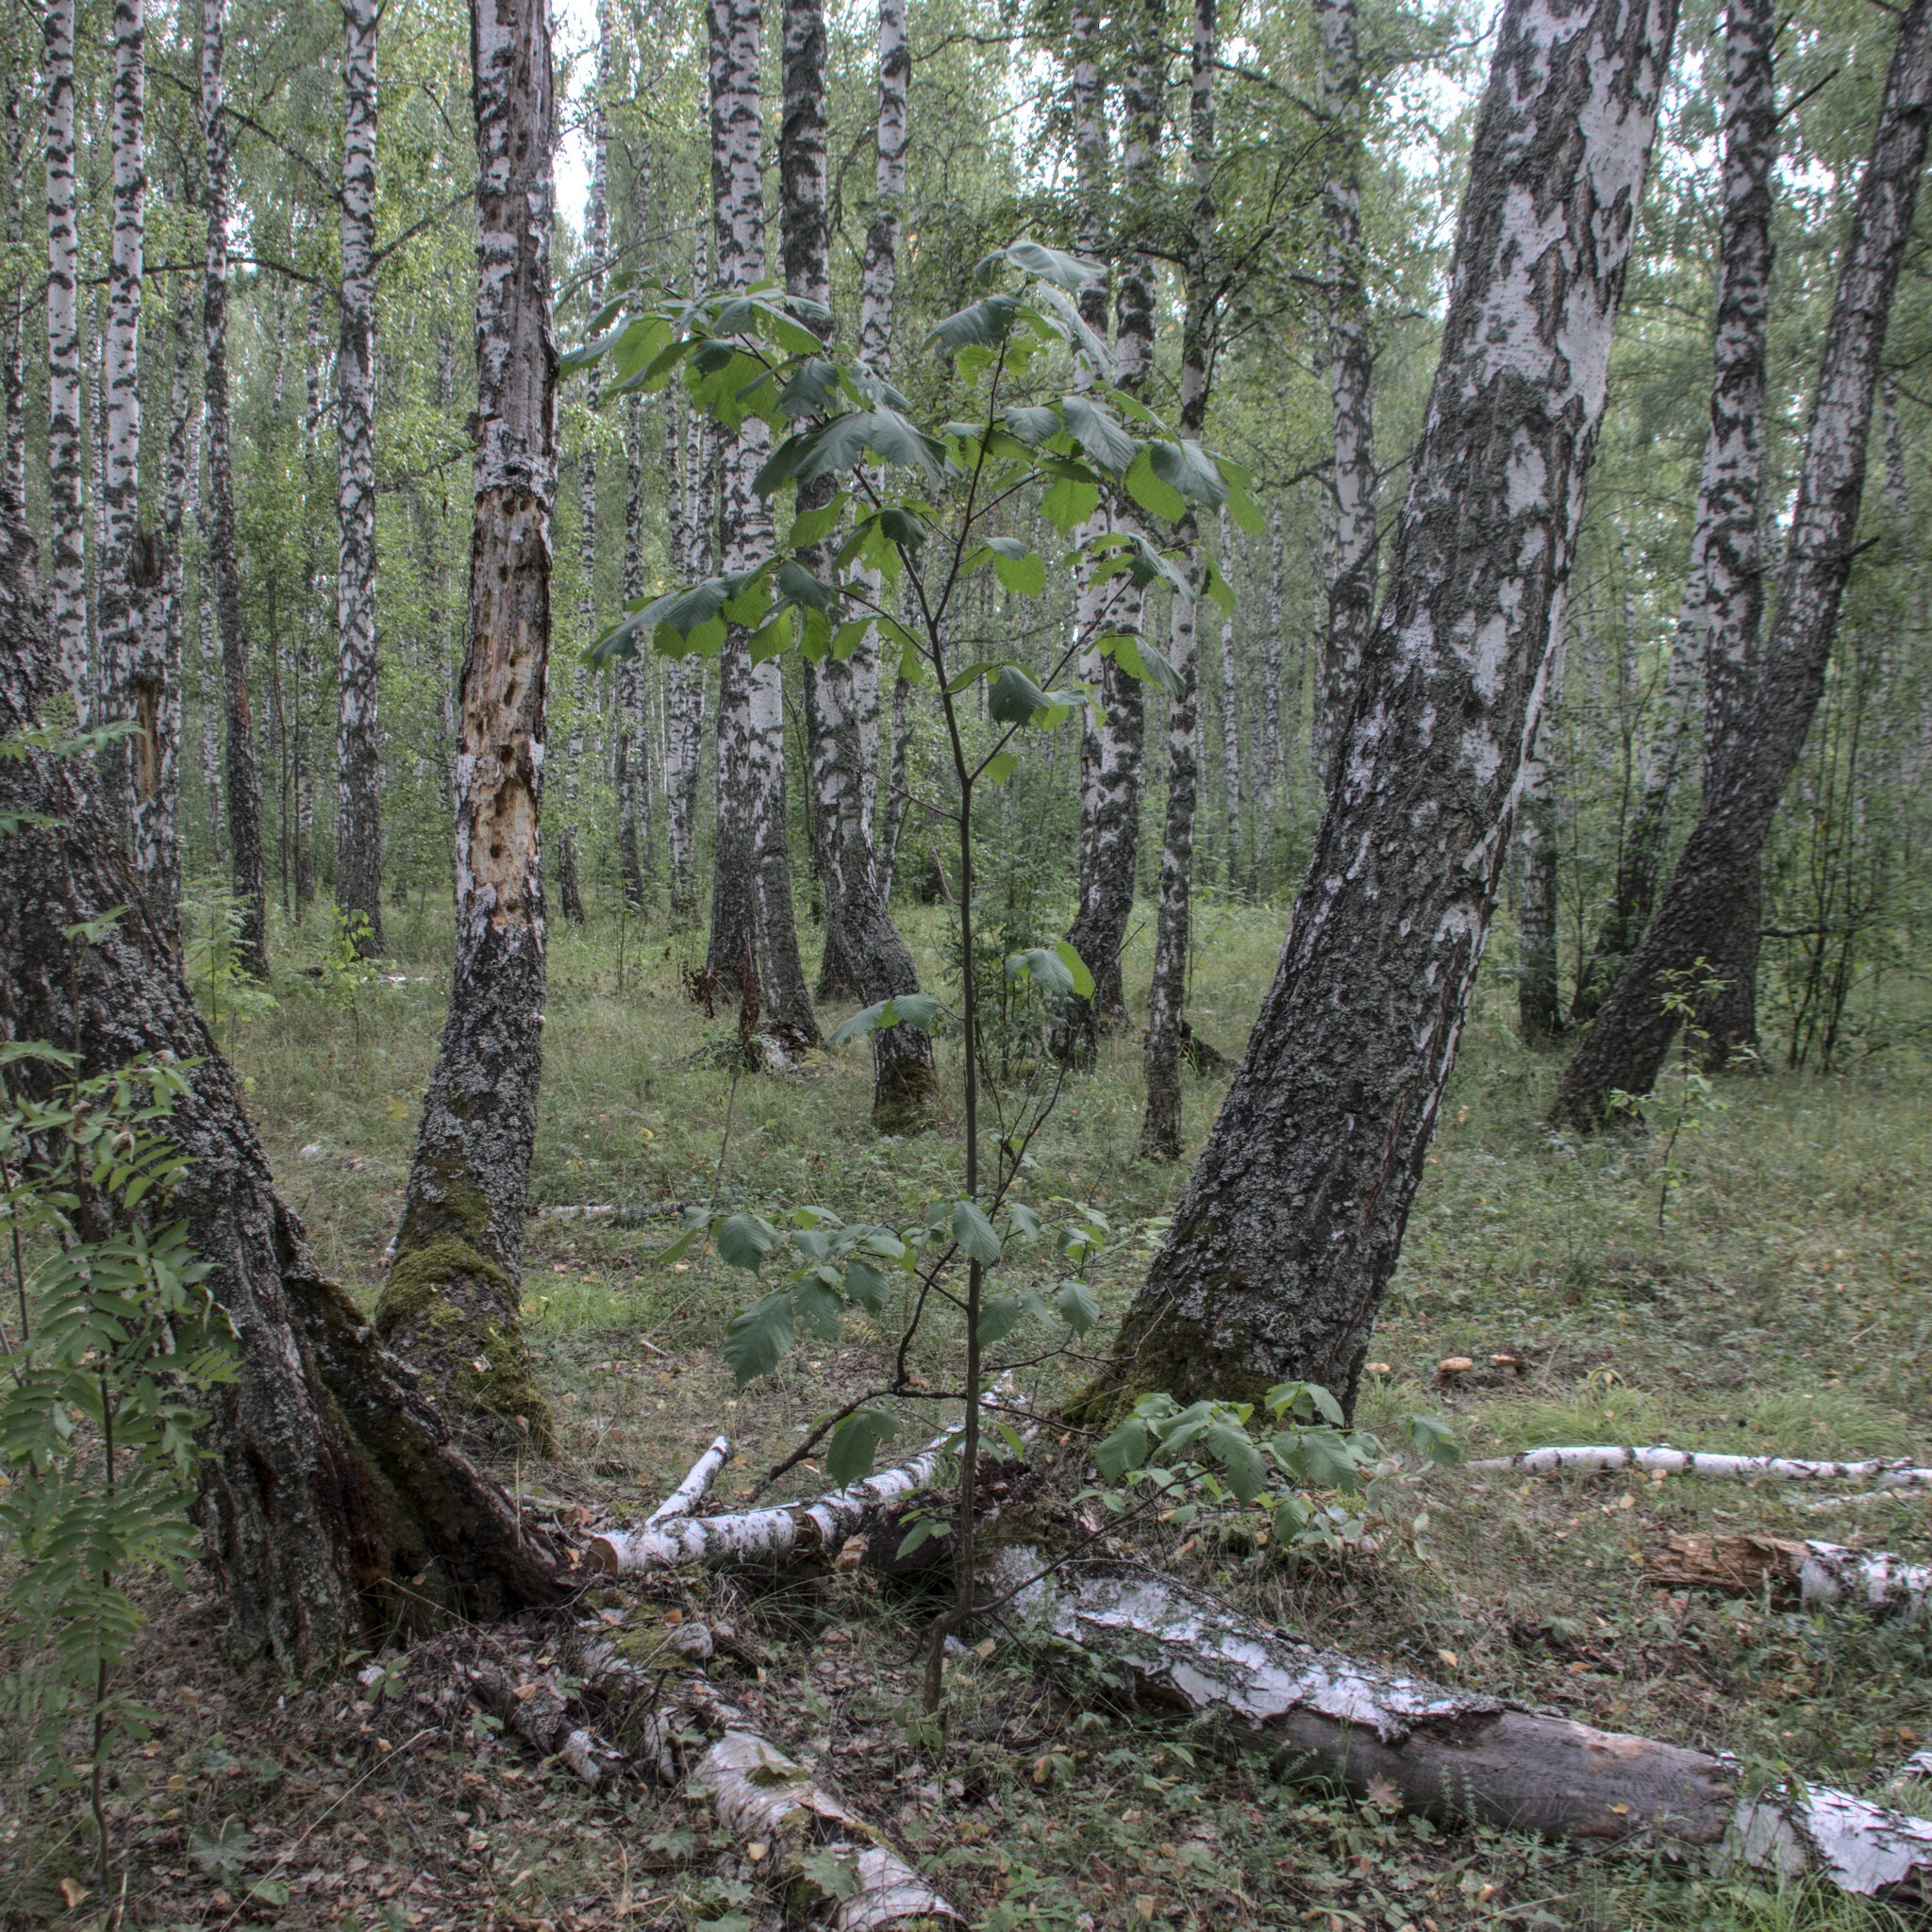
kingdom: Plantae
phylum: Tracheophyta
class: Magnoliopsida
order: Rosales
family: Ulmaceae
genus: Ulmus
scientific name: Ulmus glabra
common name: Wych elm
